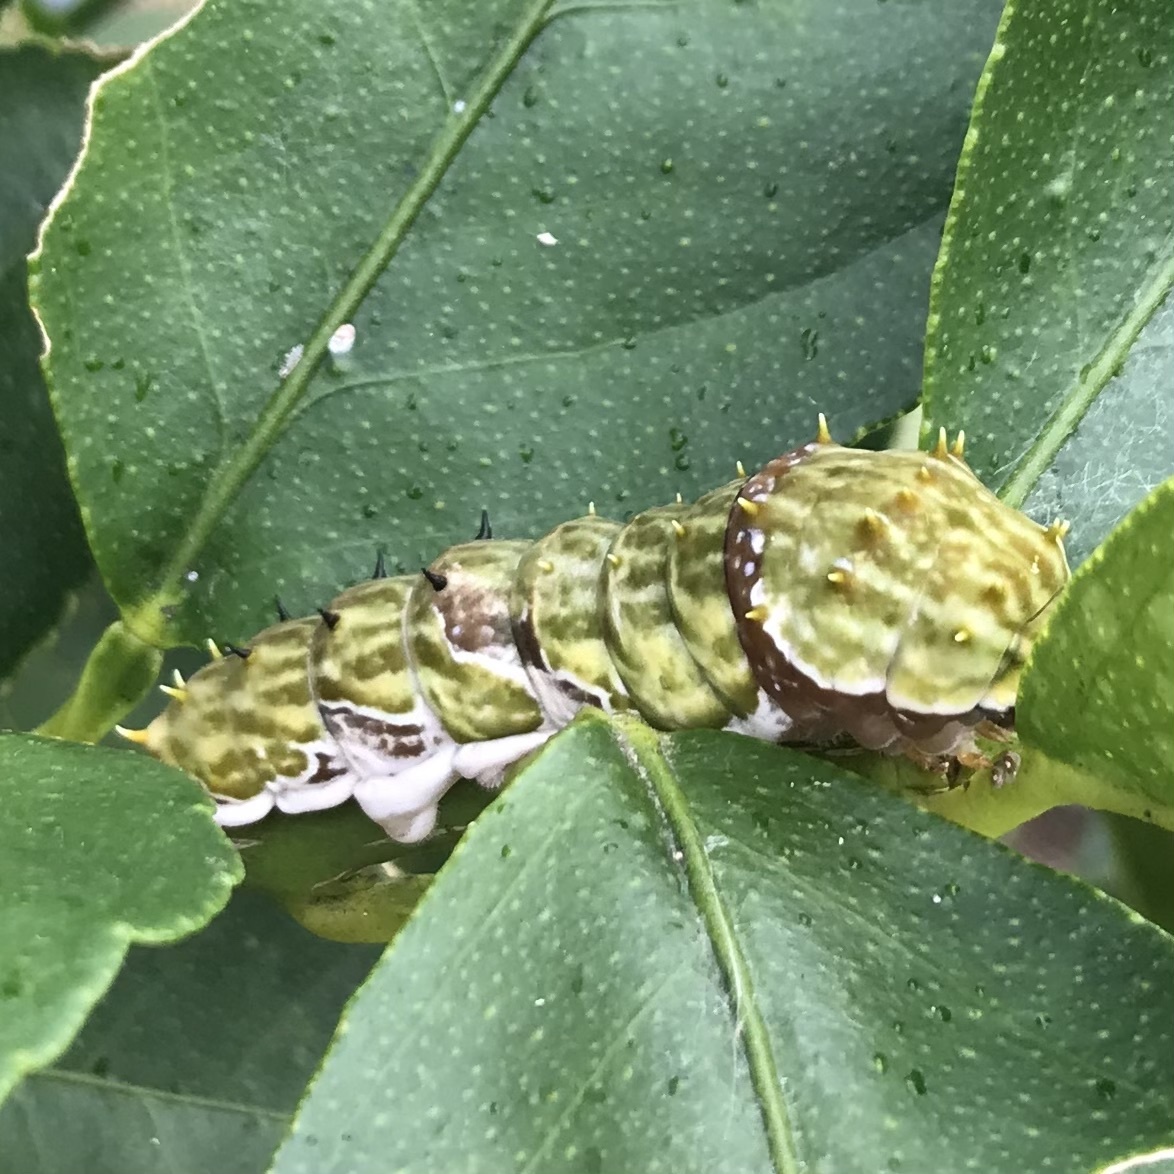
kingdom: Animalia
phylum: Arthropoda
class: Insecta
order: Lepidoptera
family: Papilionidae
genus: Papilio
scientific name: Papilio aegeus
